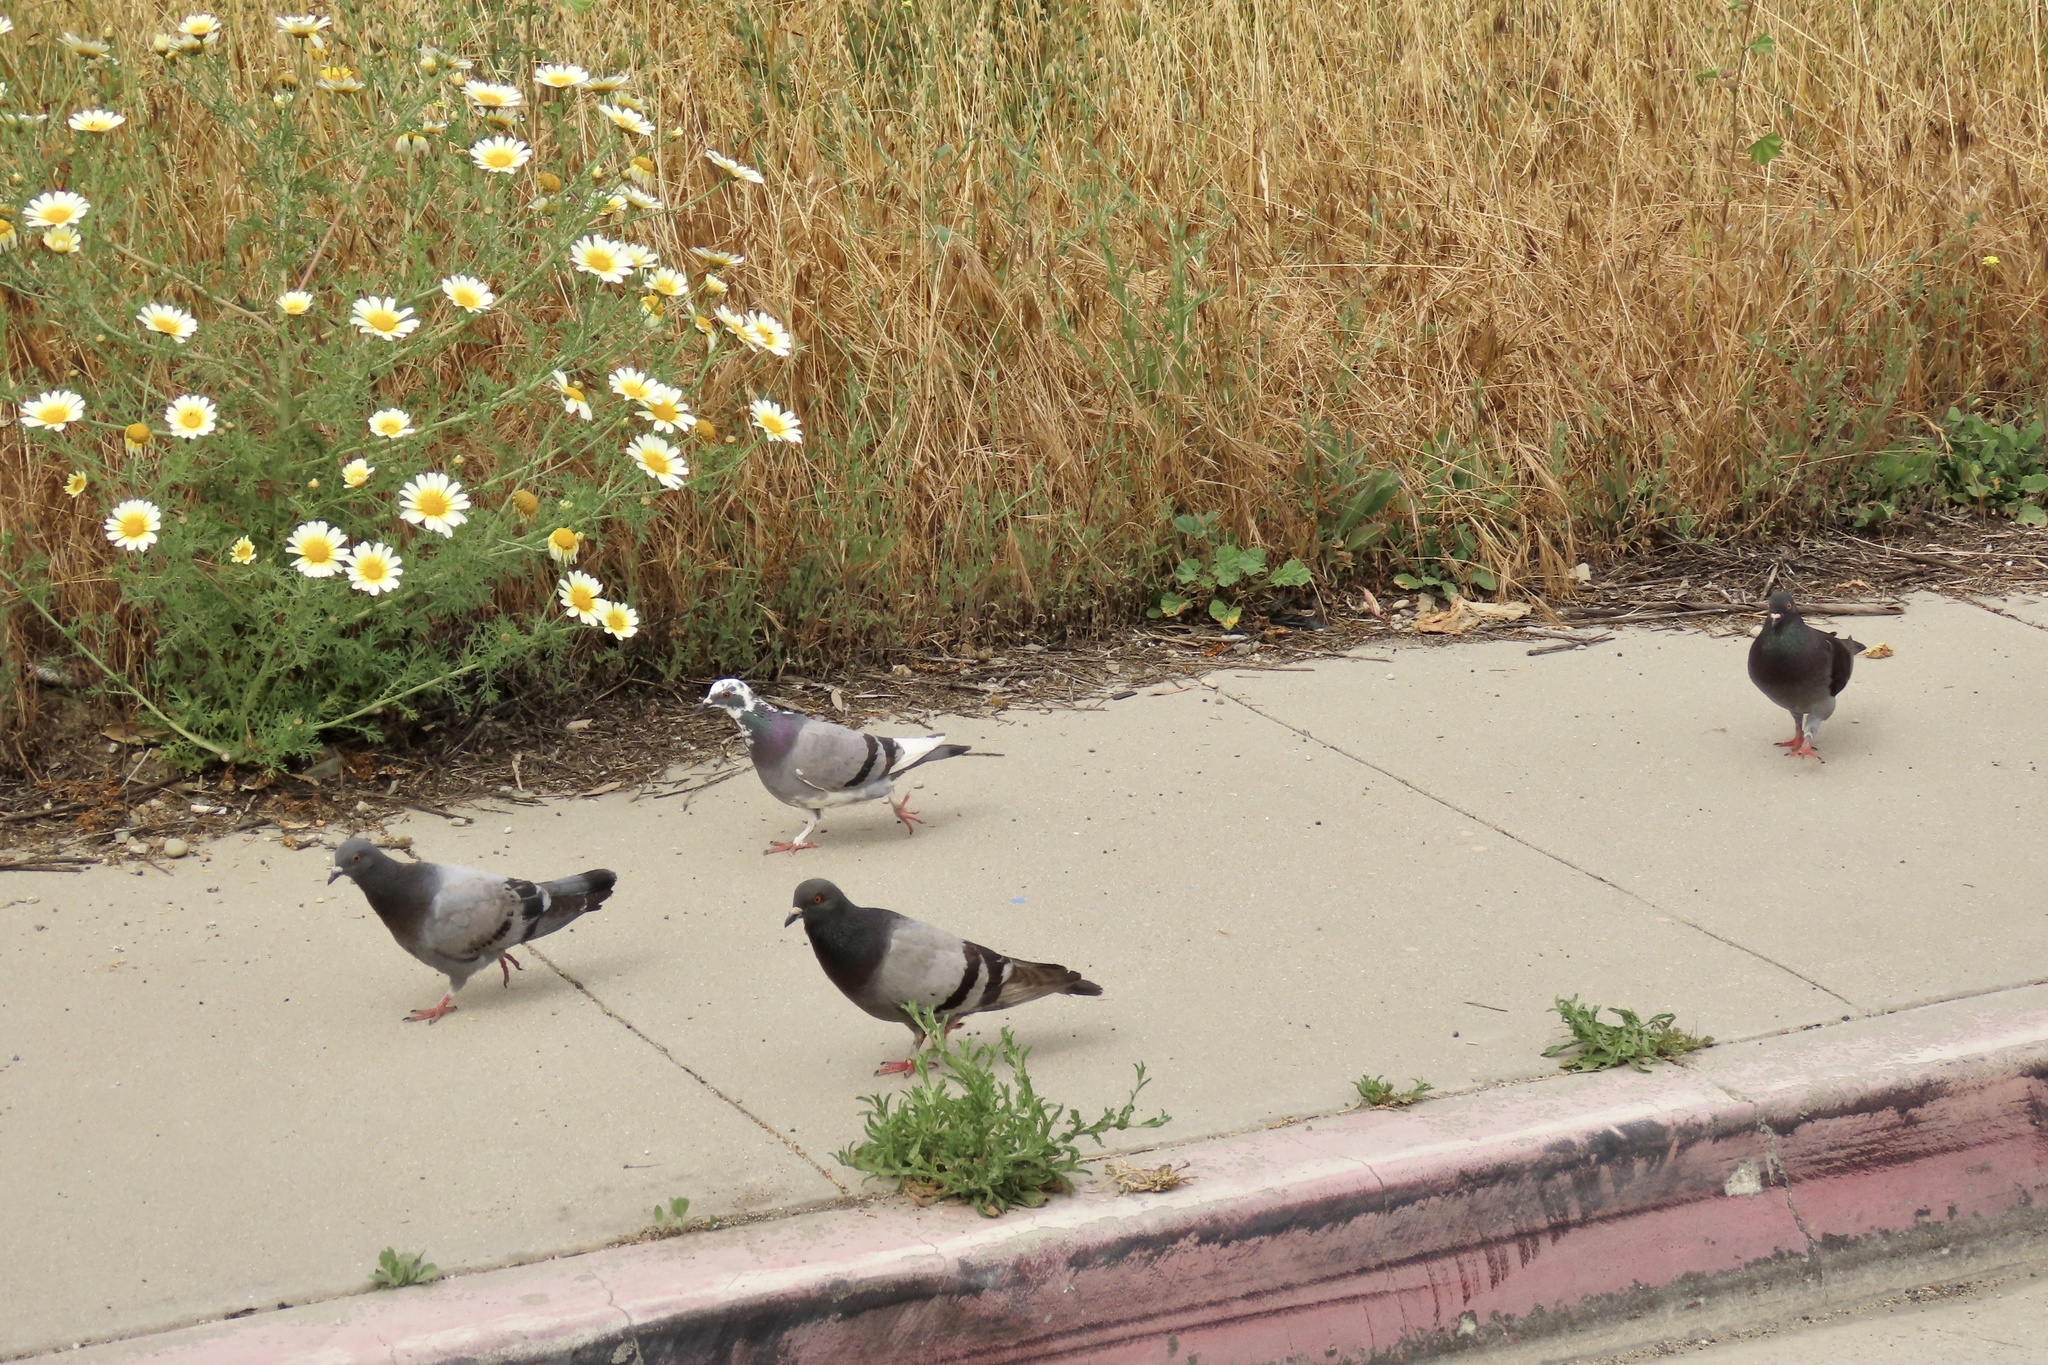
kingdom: Animalia
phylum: Chordata
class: Aves
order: Columbiformes
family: Columbidae
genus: Columba
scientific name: Columba livia
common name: Rock pigeon
